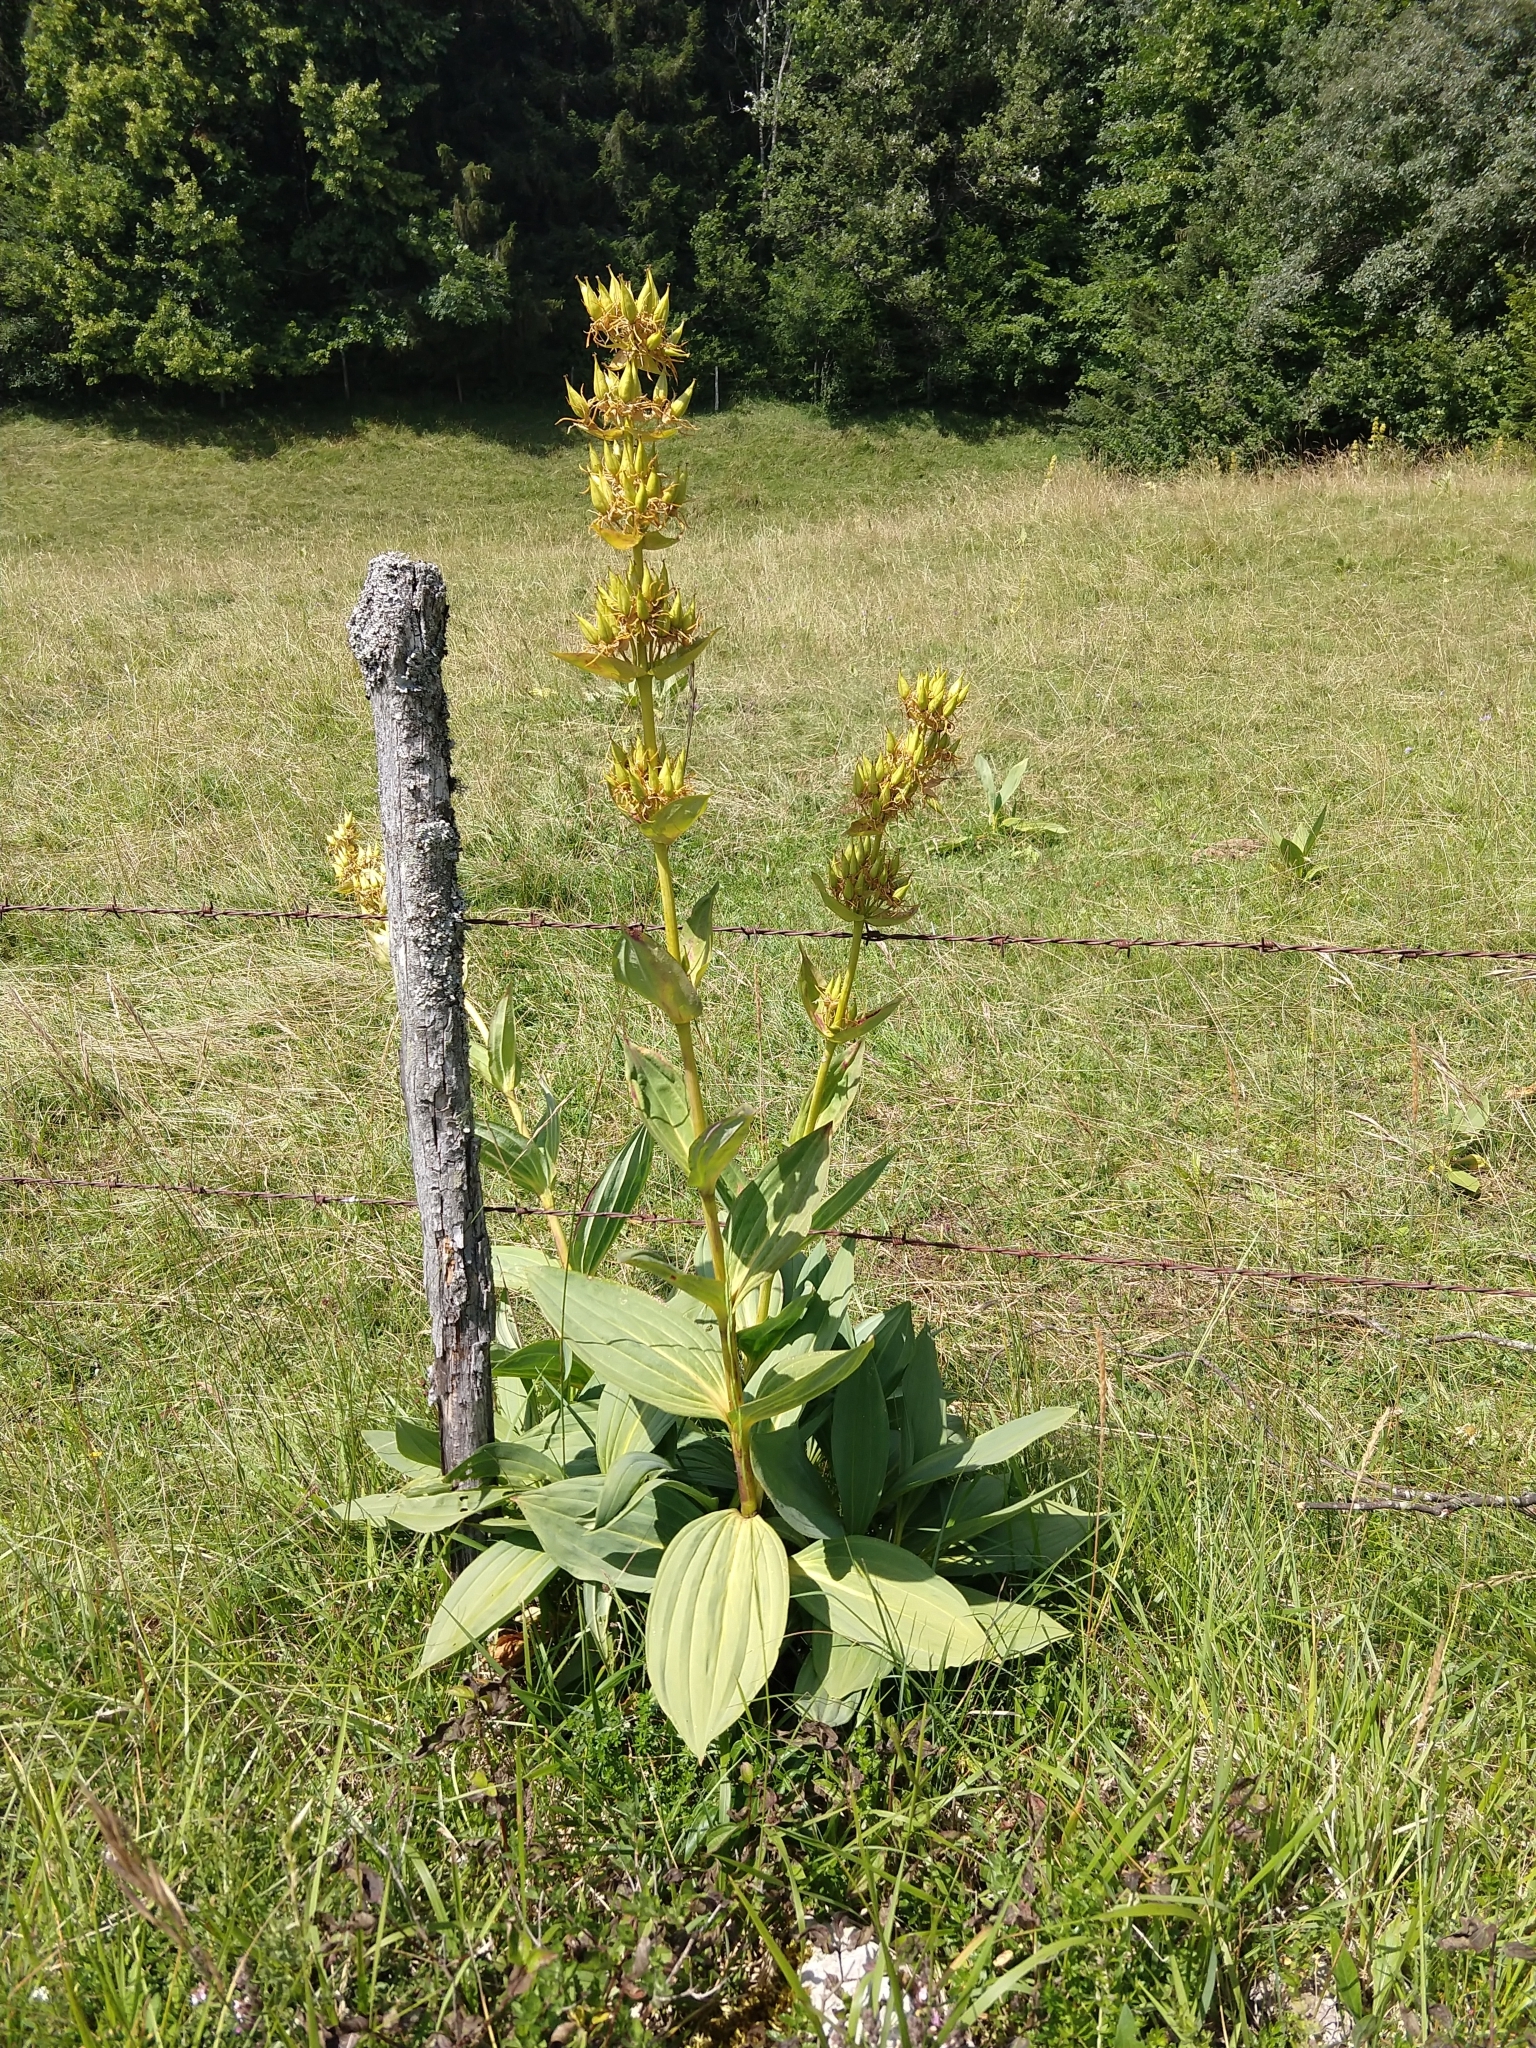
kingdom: Plantae
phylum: Tracheophyta
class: Magnoliopsida
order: Gentianales
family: Gentianaceae
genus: Gentiana
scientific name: Gentiana lutea
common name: Great yellow gentian
